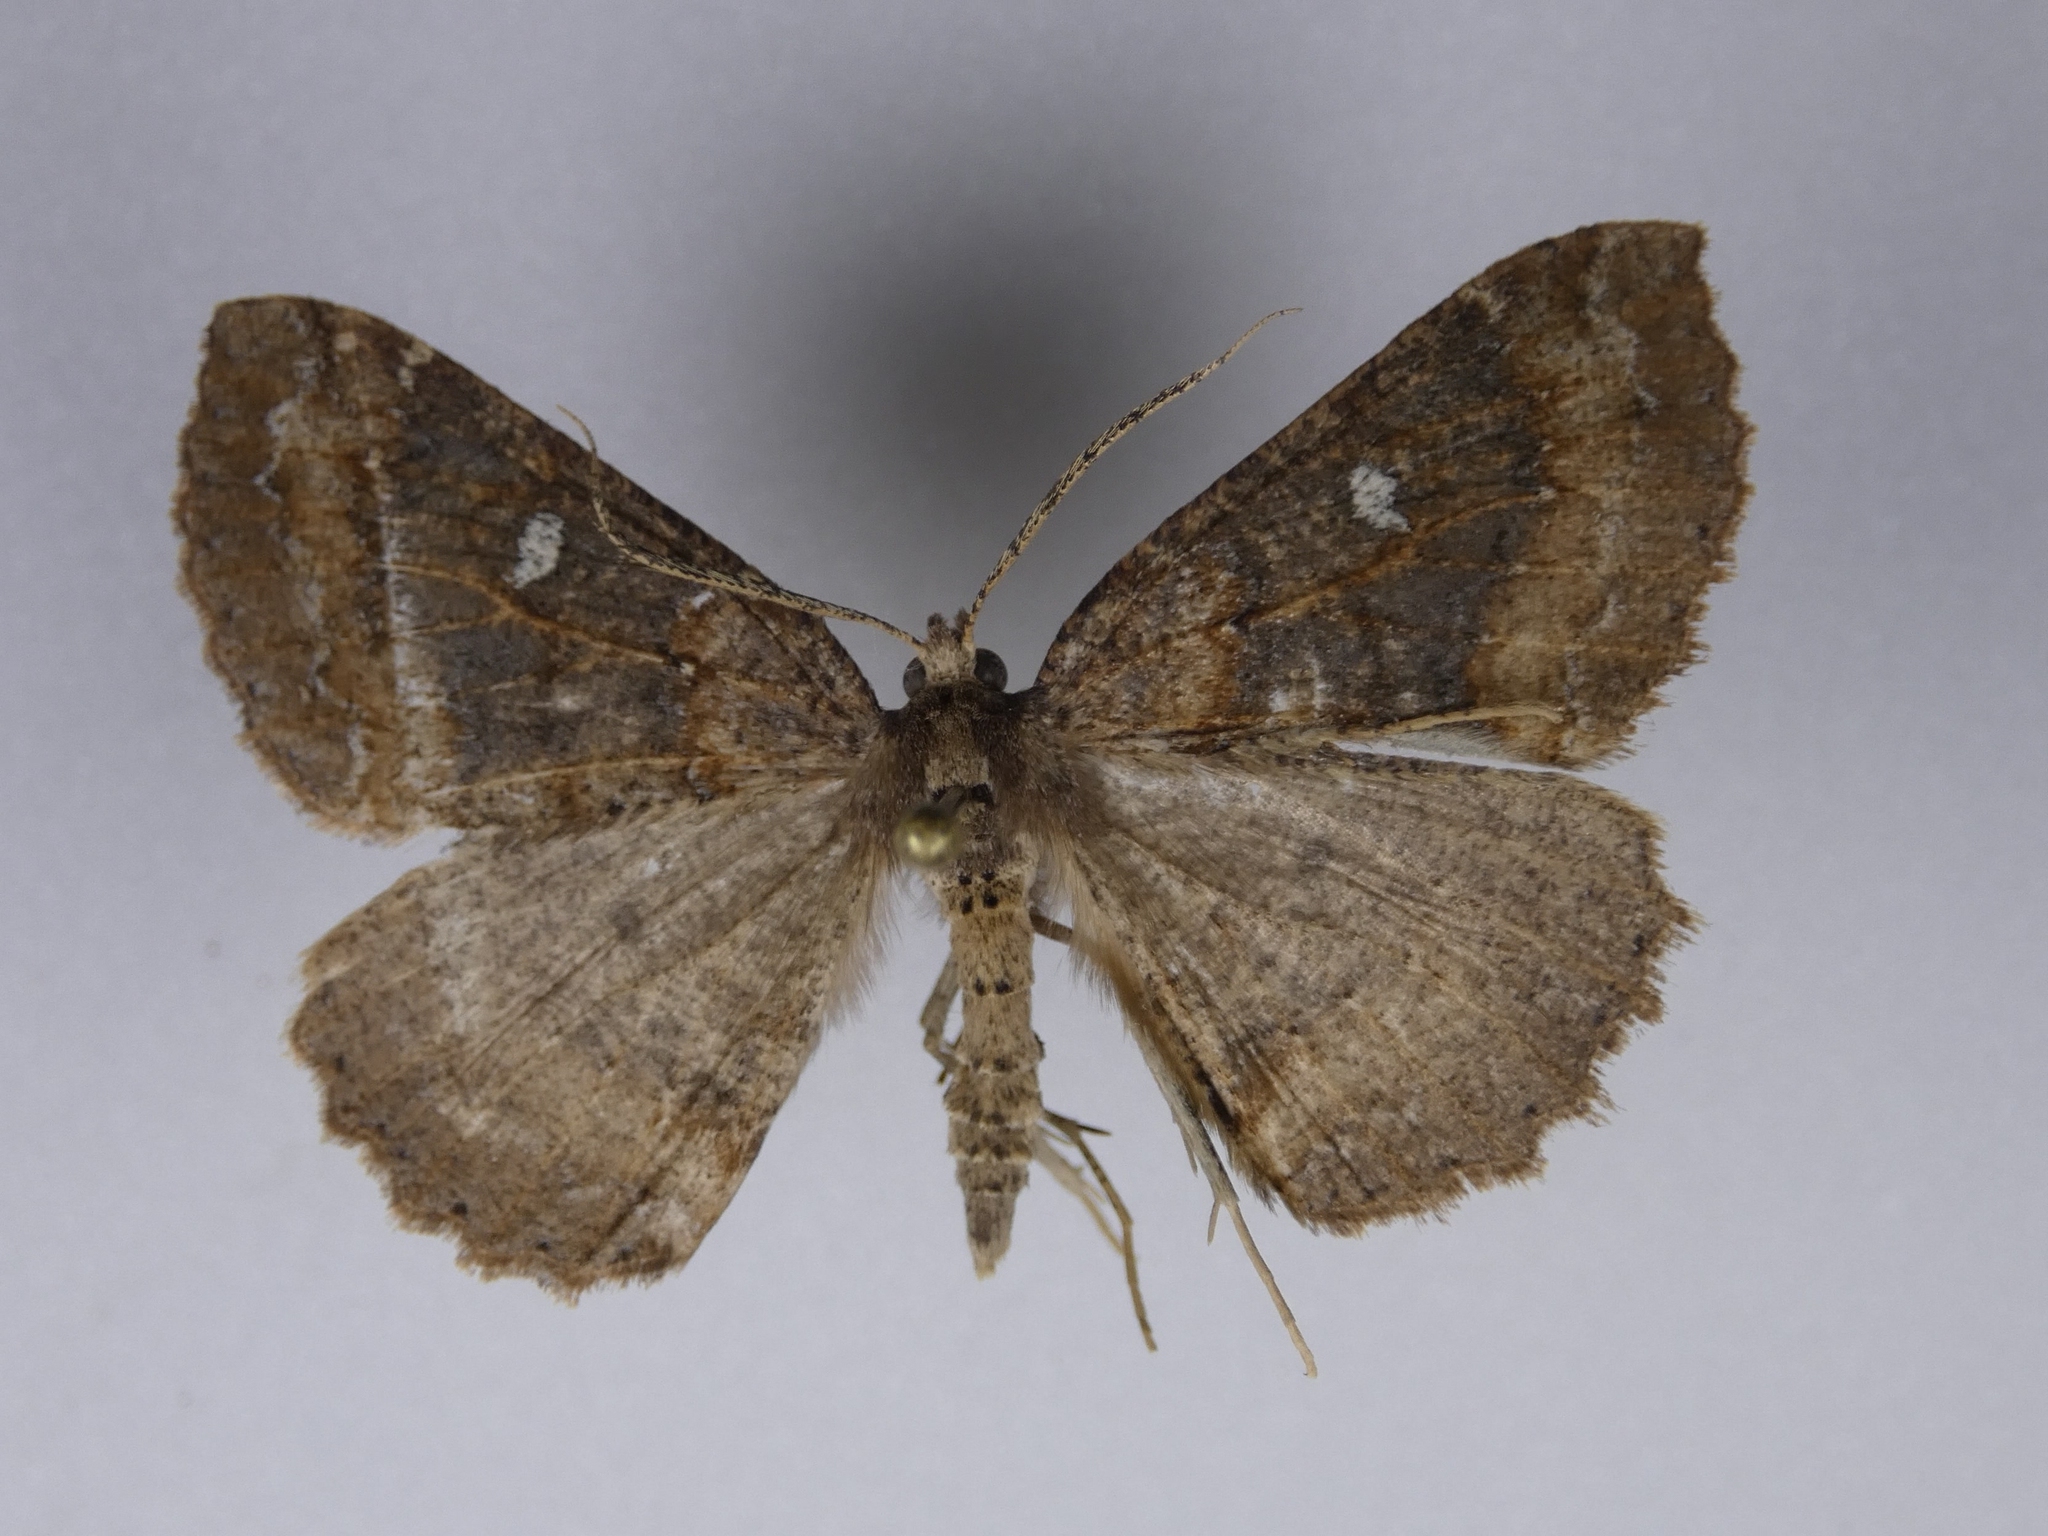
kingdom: Animalia
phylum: Arthropoda
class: Insecta
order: Lepidoptera
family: Geometridae
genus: Cleora
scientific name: Cleora scriptaria
